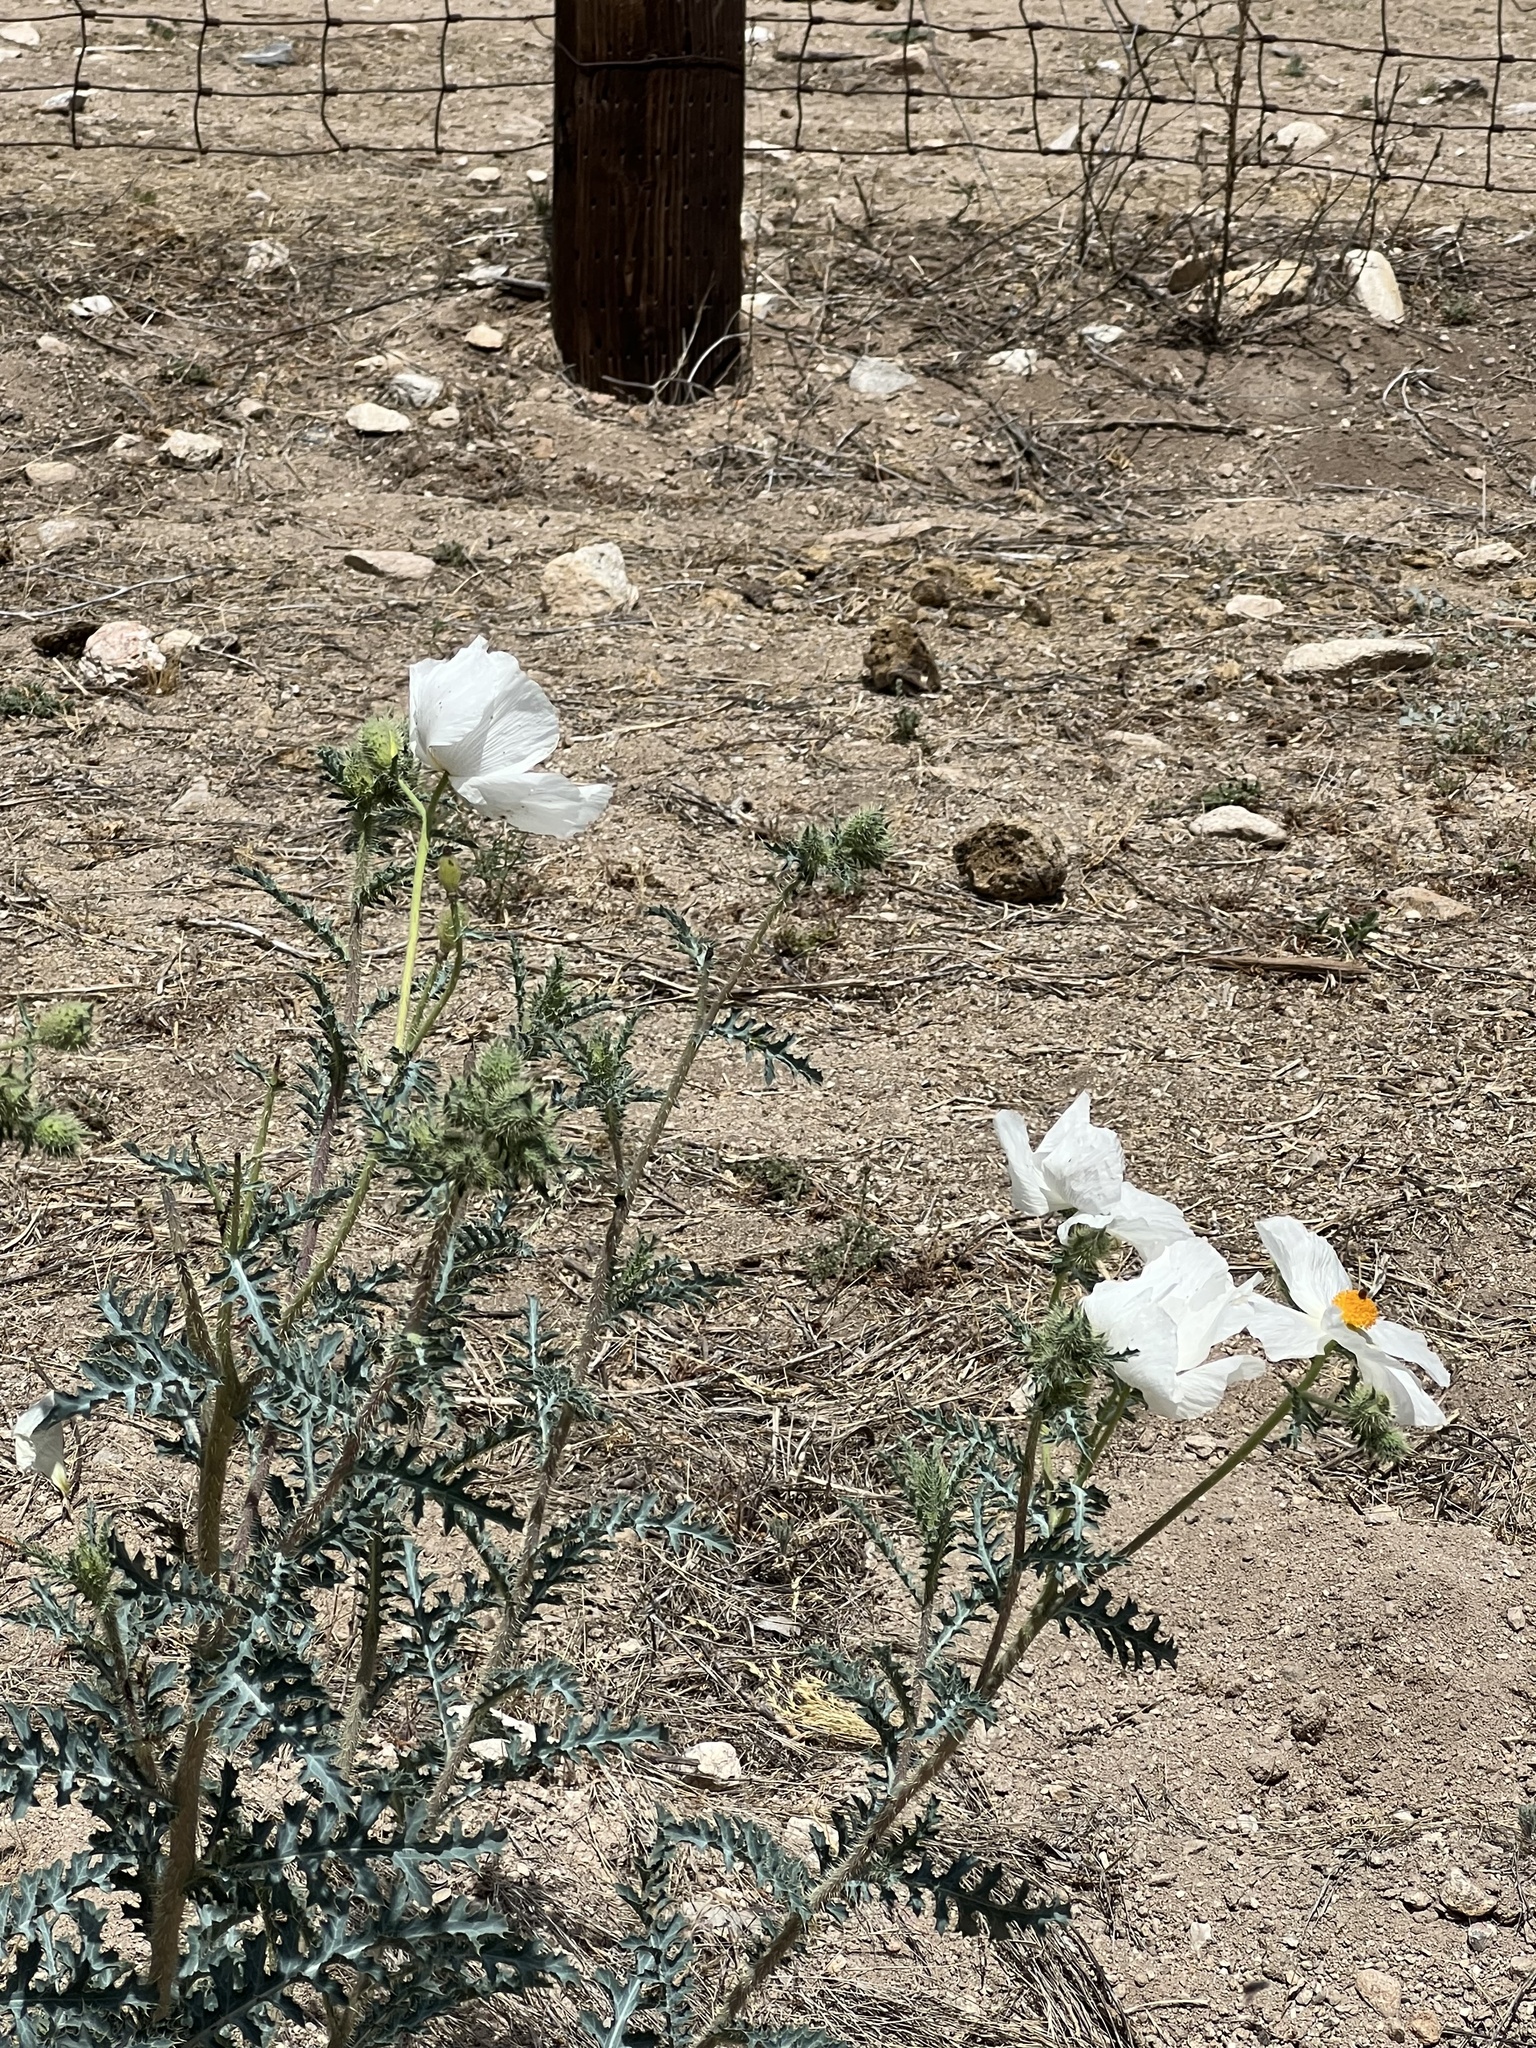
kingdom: Plantae
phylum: Tracheophyta
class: Magnoliopsida
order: Ranunculales
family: Papaveraceae
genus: Argemone
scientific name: Argemone pleiacantha
